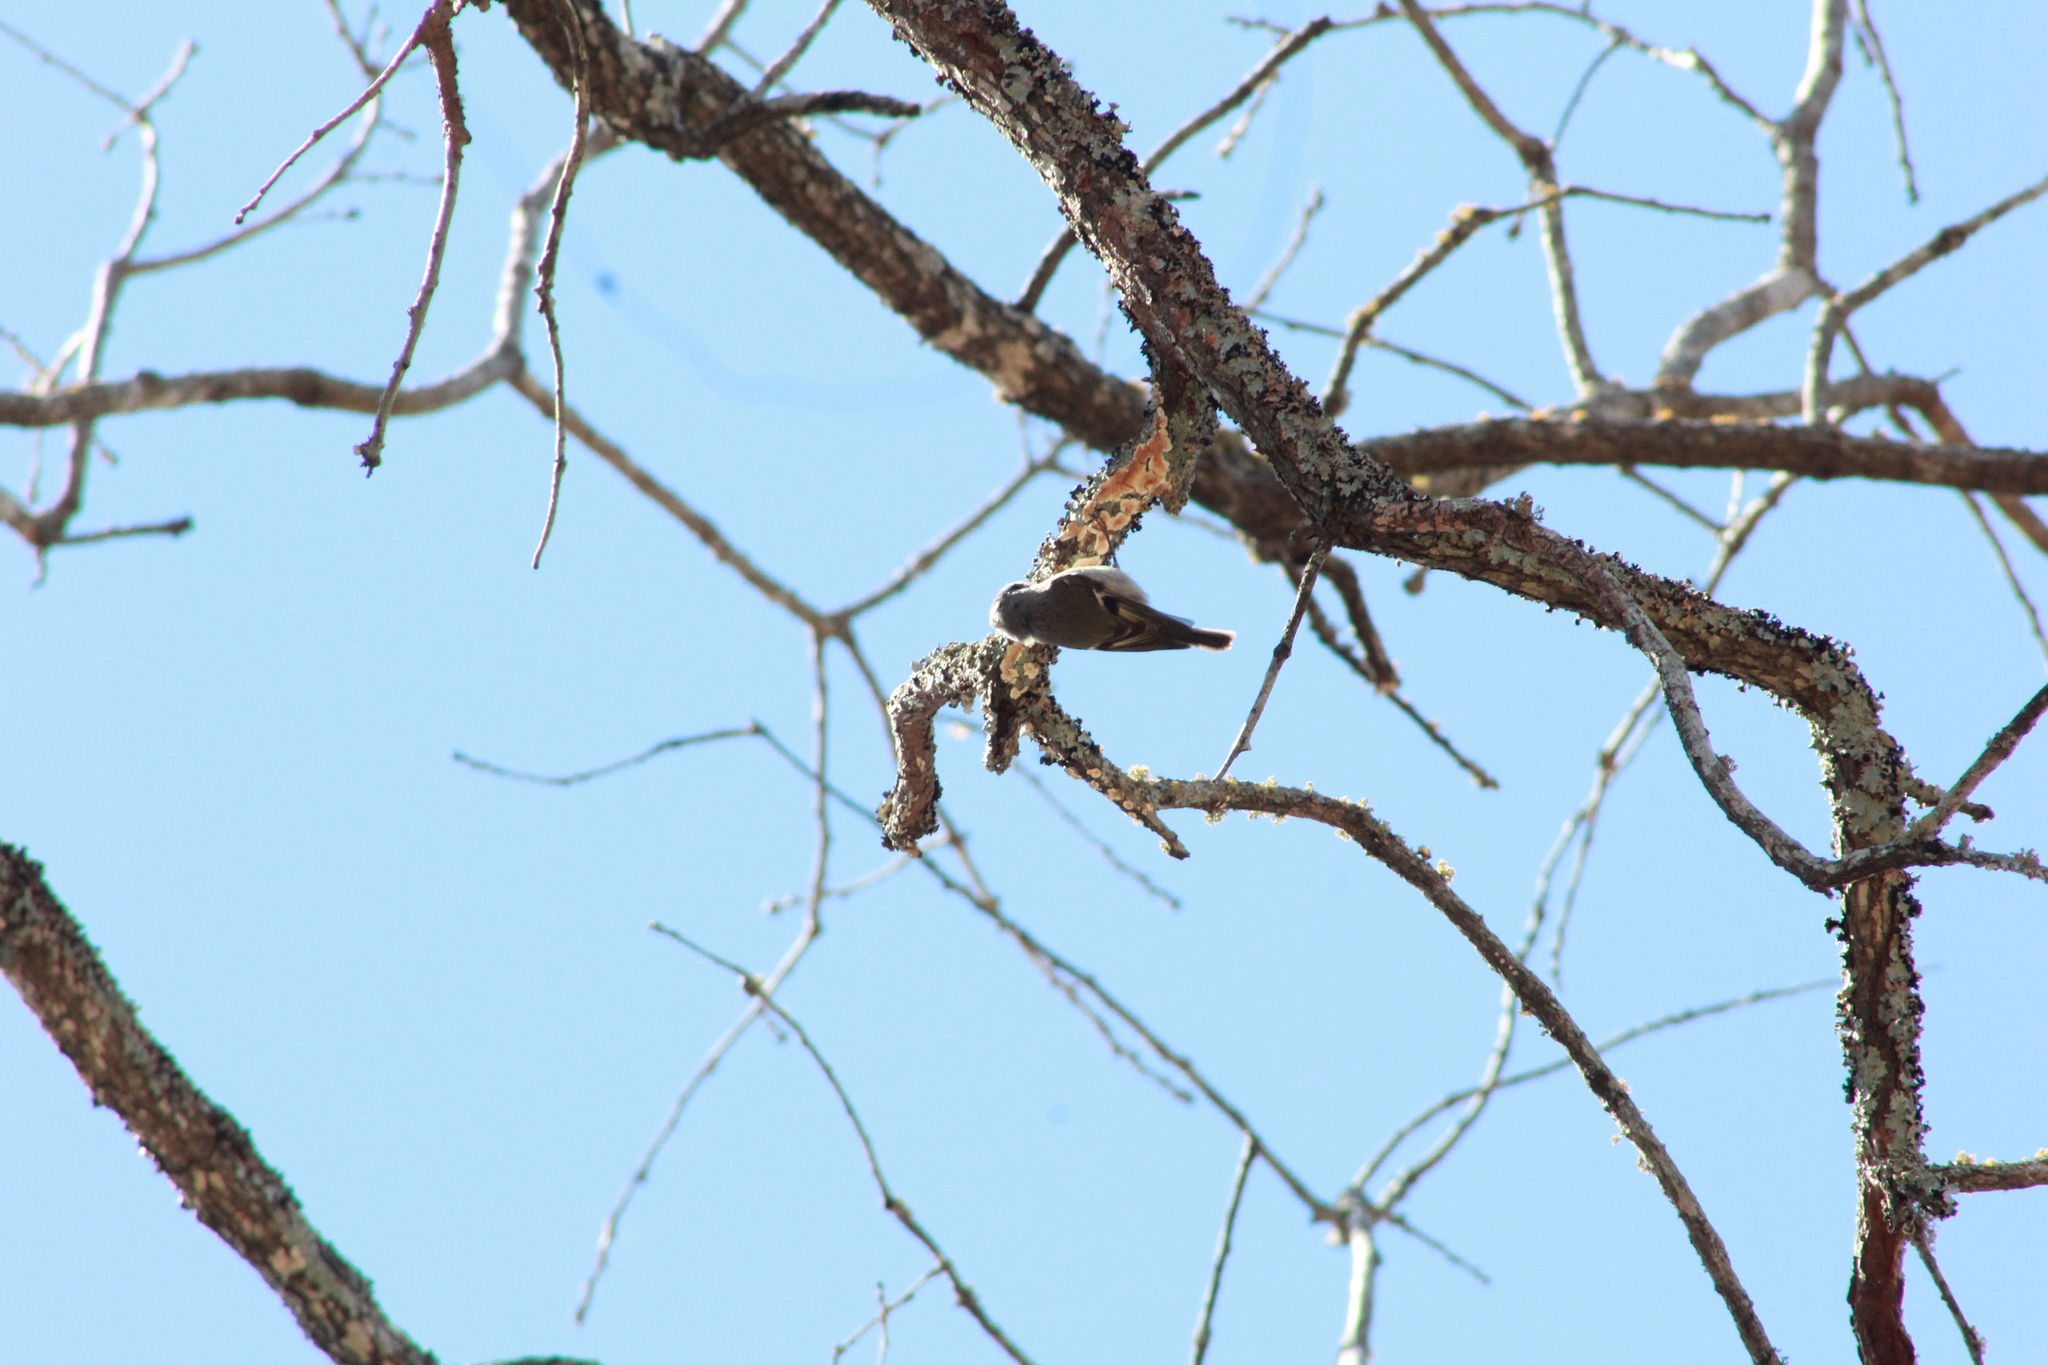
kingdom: Animalia
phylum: Chordata
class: Aves
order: Passeriformes
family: Regulidae
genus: Regulus
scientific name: Regulus satrapa
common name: Golden-crowned kinglet
